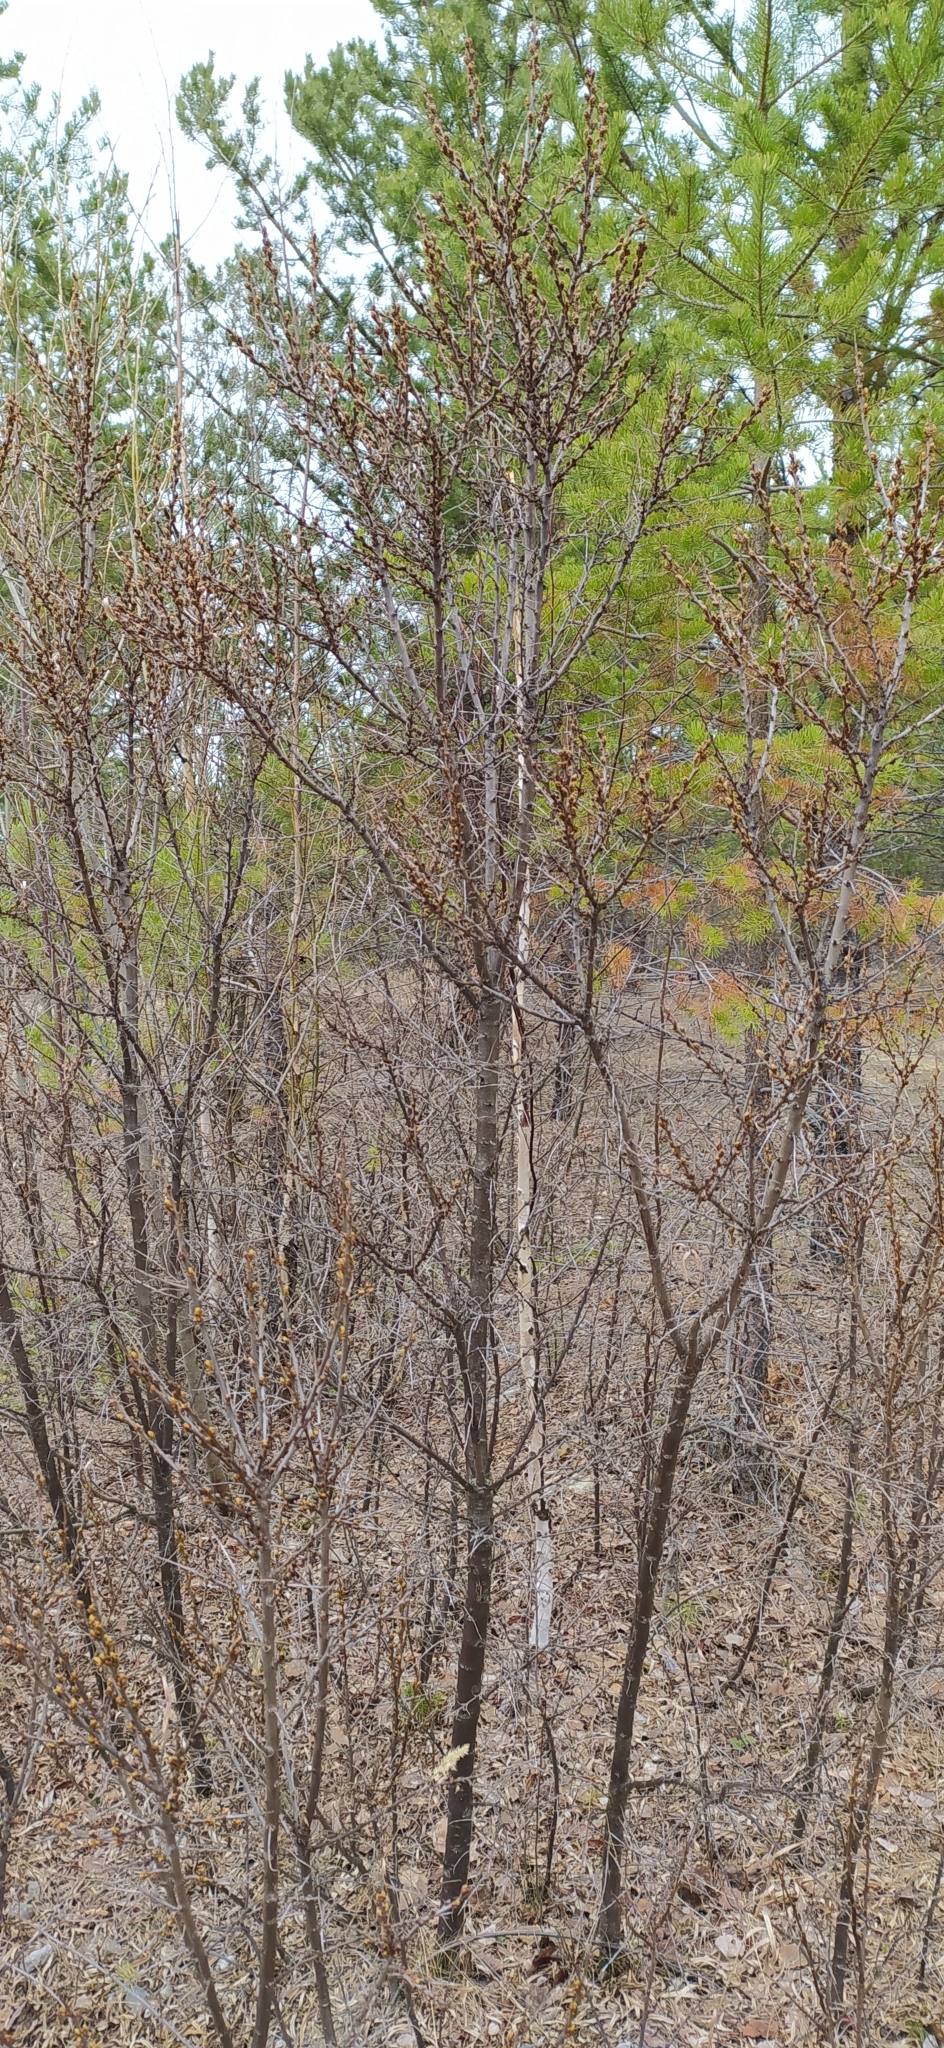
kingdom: Plantae
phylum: Tracheophyta
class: Magnoliopsida
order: Rosales
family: Elaeagnaceae
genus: Hippophae
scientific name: Hippophae rhamnoides
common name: Sea-buckthorn
